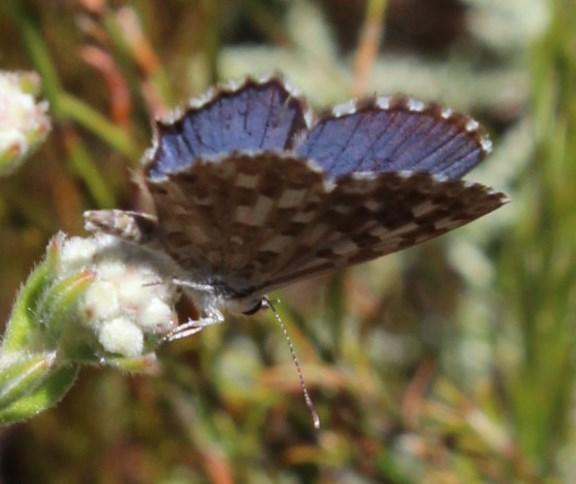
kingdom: Animalia
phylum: Arthropoda
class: Insecta
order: Lepidoptera
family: Lycaenidae
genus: Tarucus
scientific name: Tarucus thespis
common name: Vivid dotted blue
